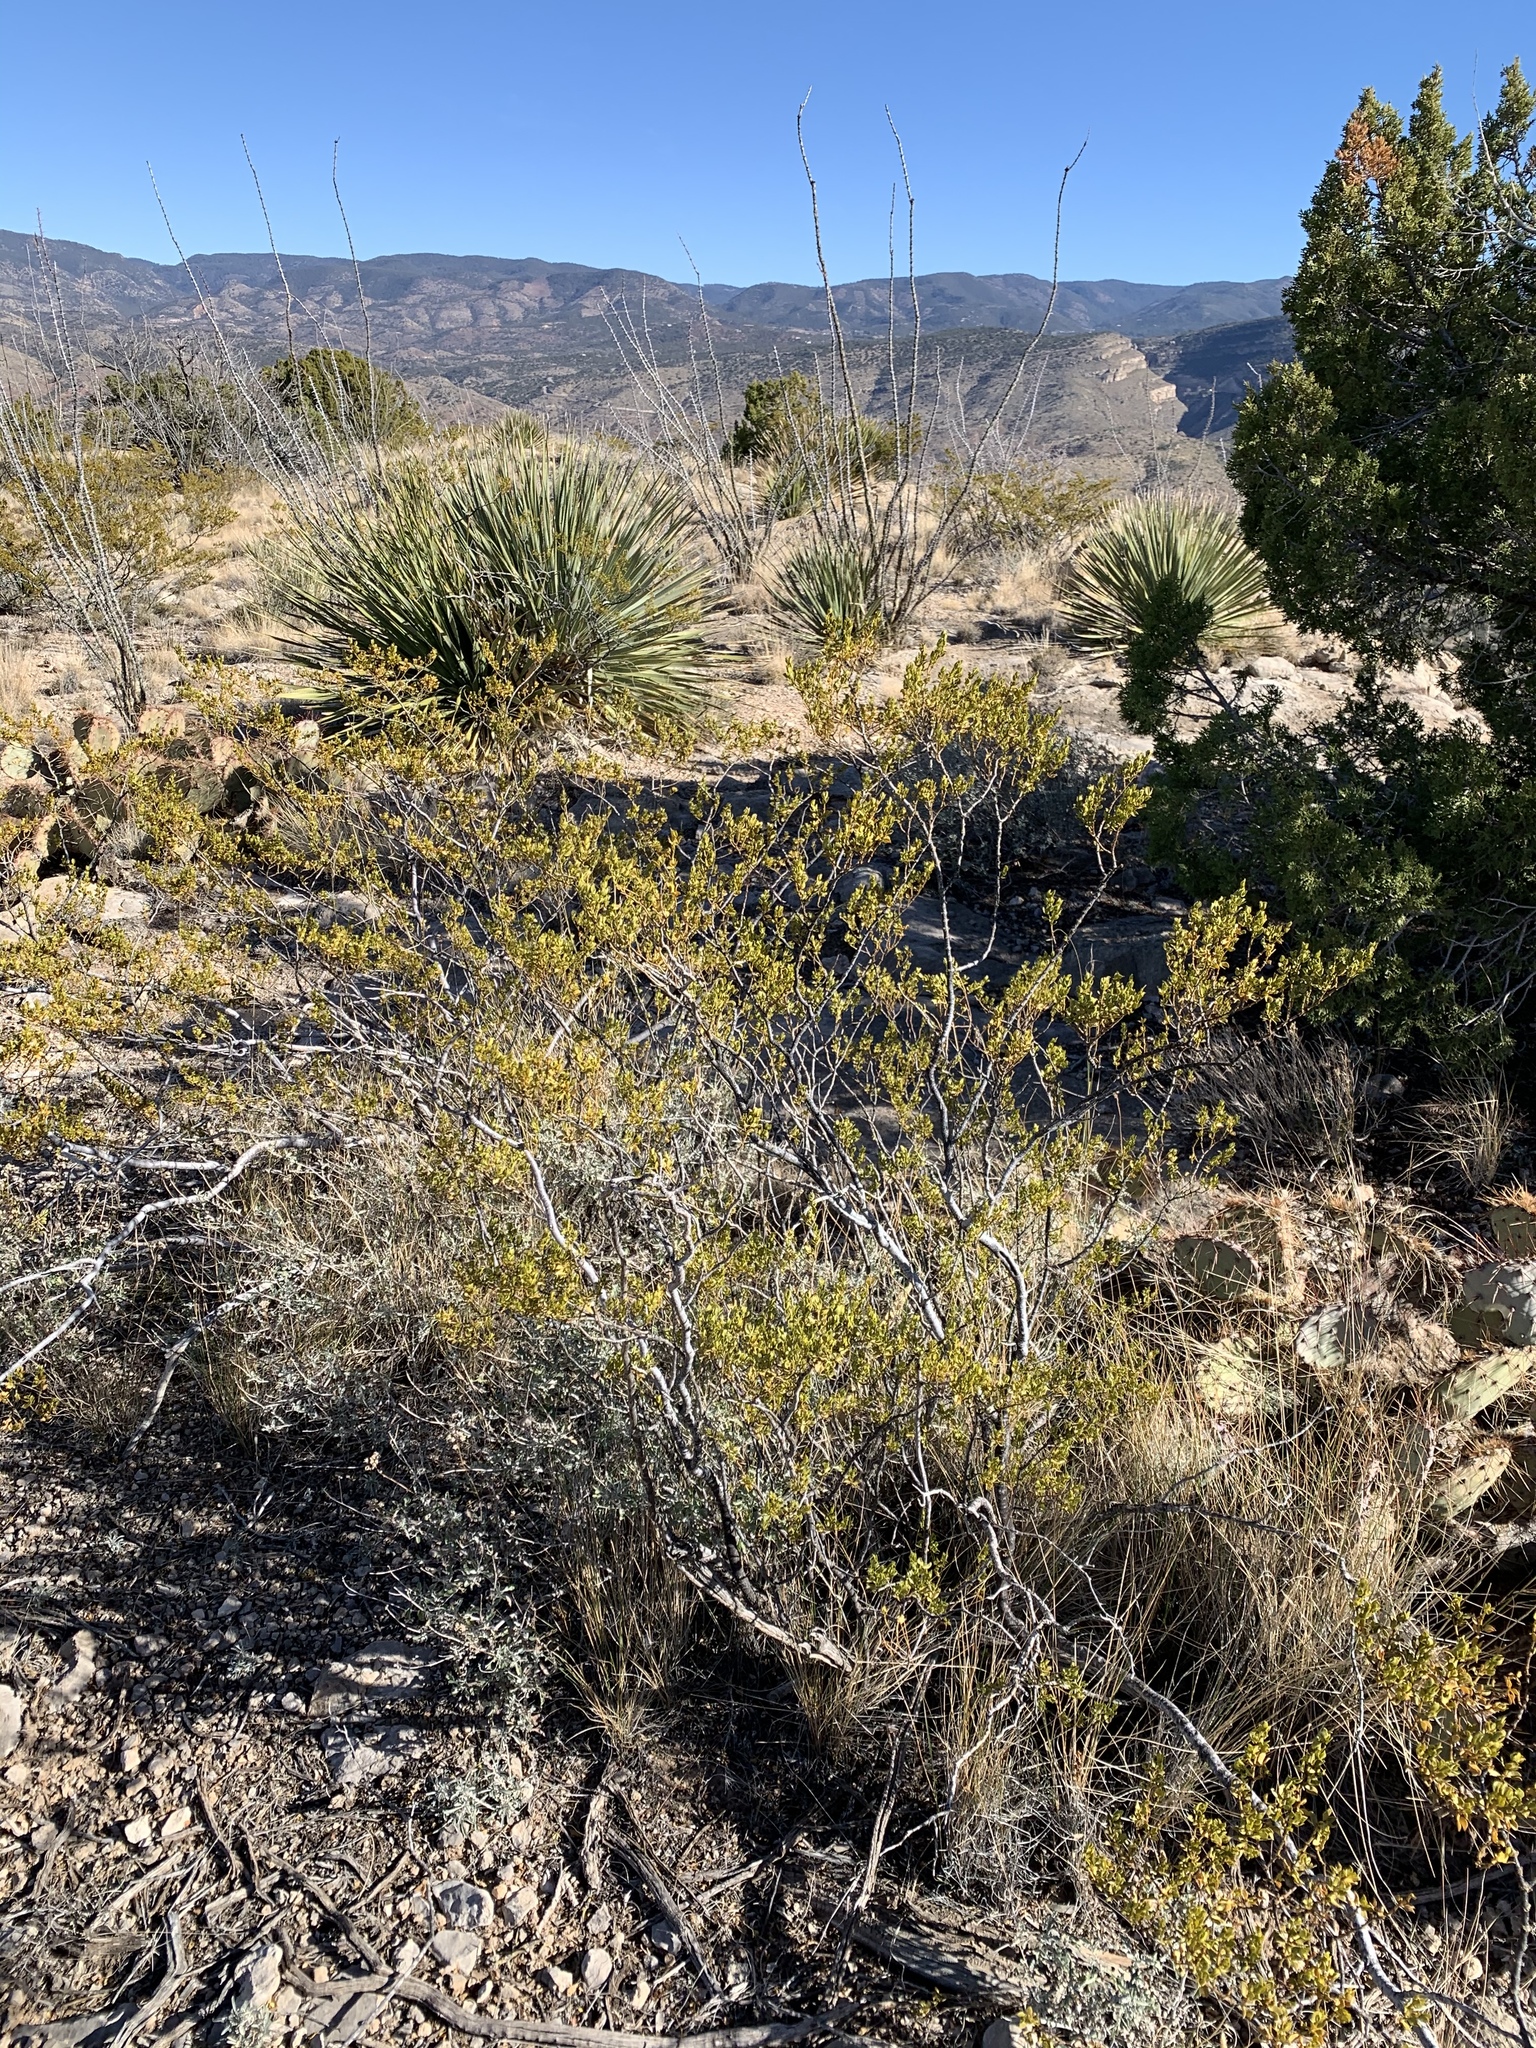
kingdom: Plantae
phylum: Tracheophyta
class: Magnoliopsida
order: Zygophyllales
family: Zygophyllaceae
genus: Larrea
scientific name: Larrea tridentata
